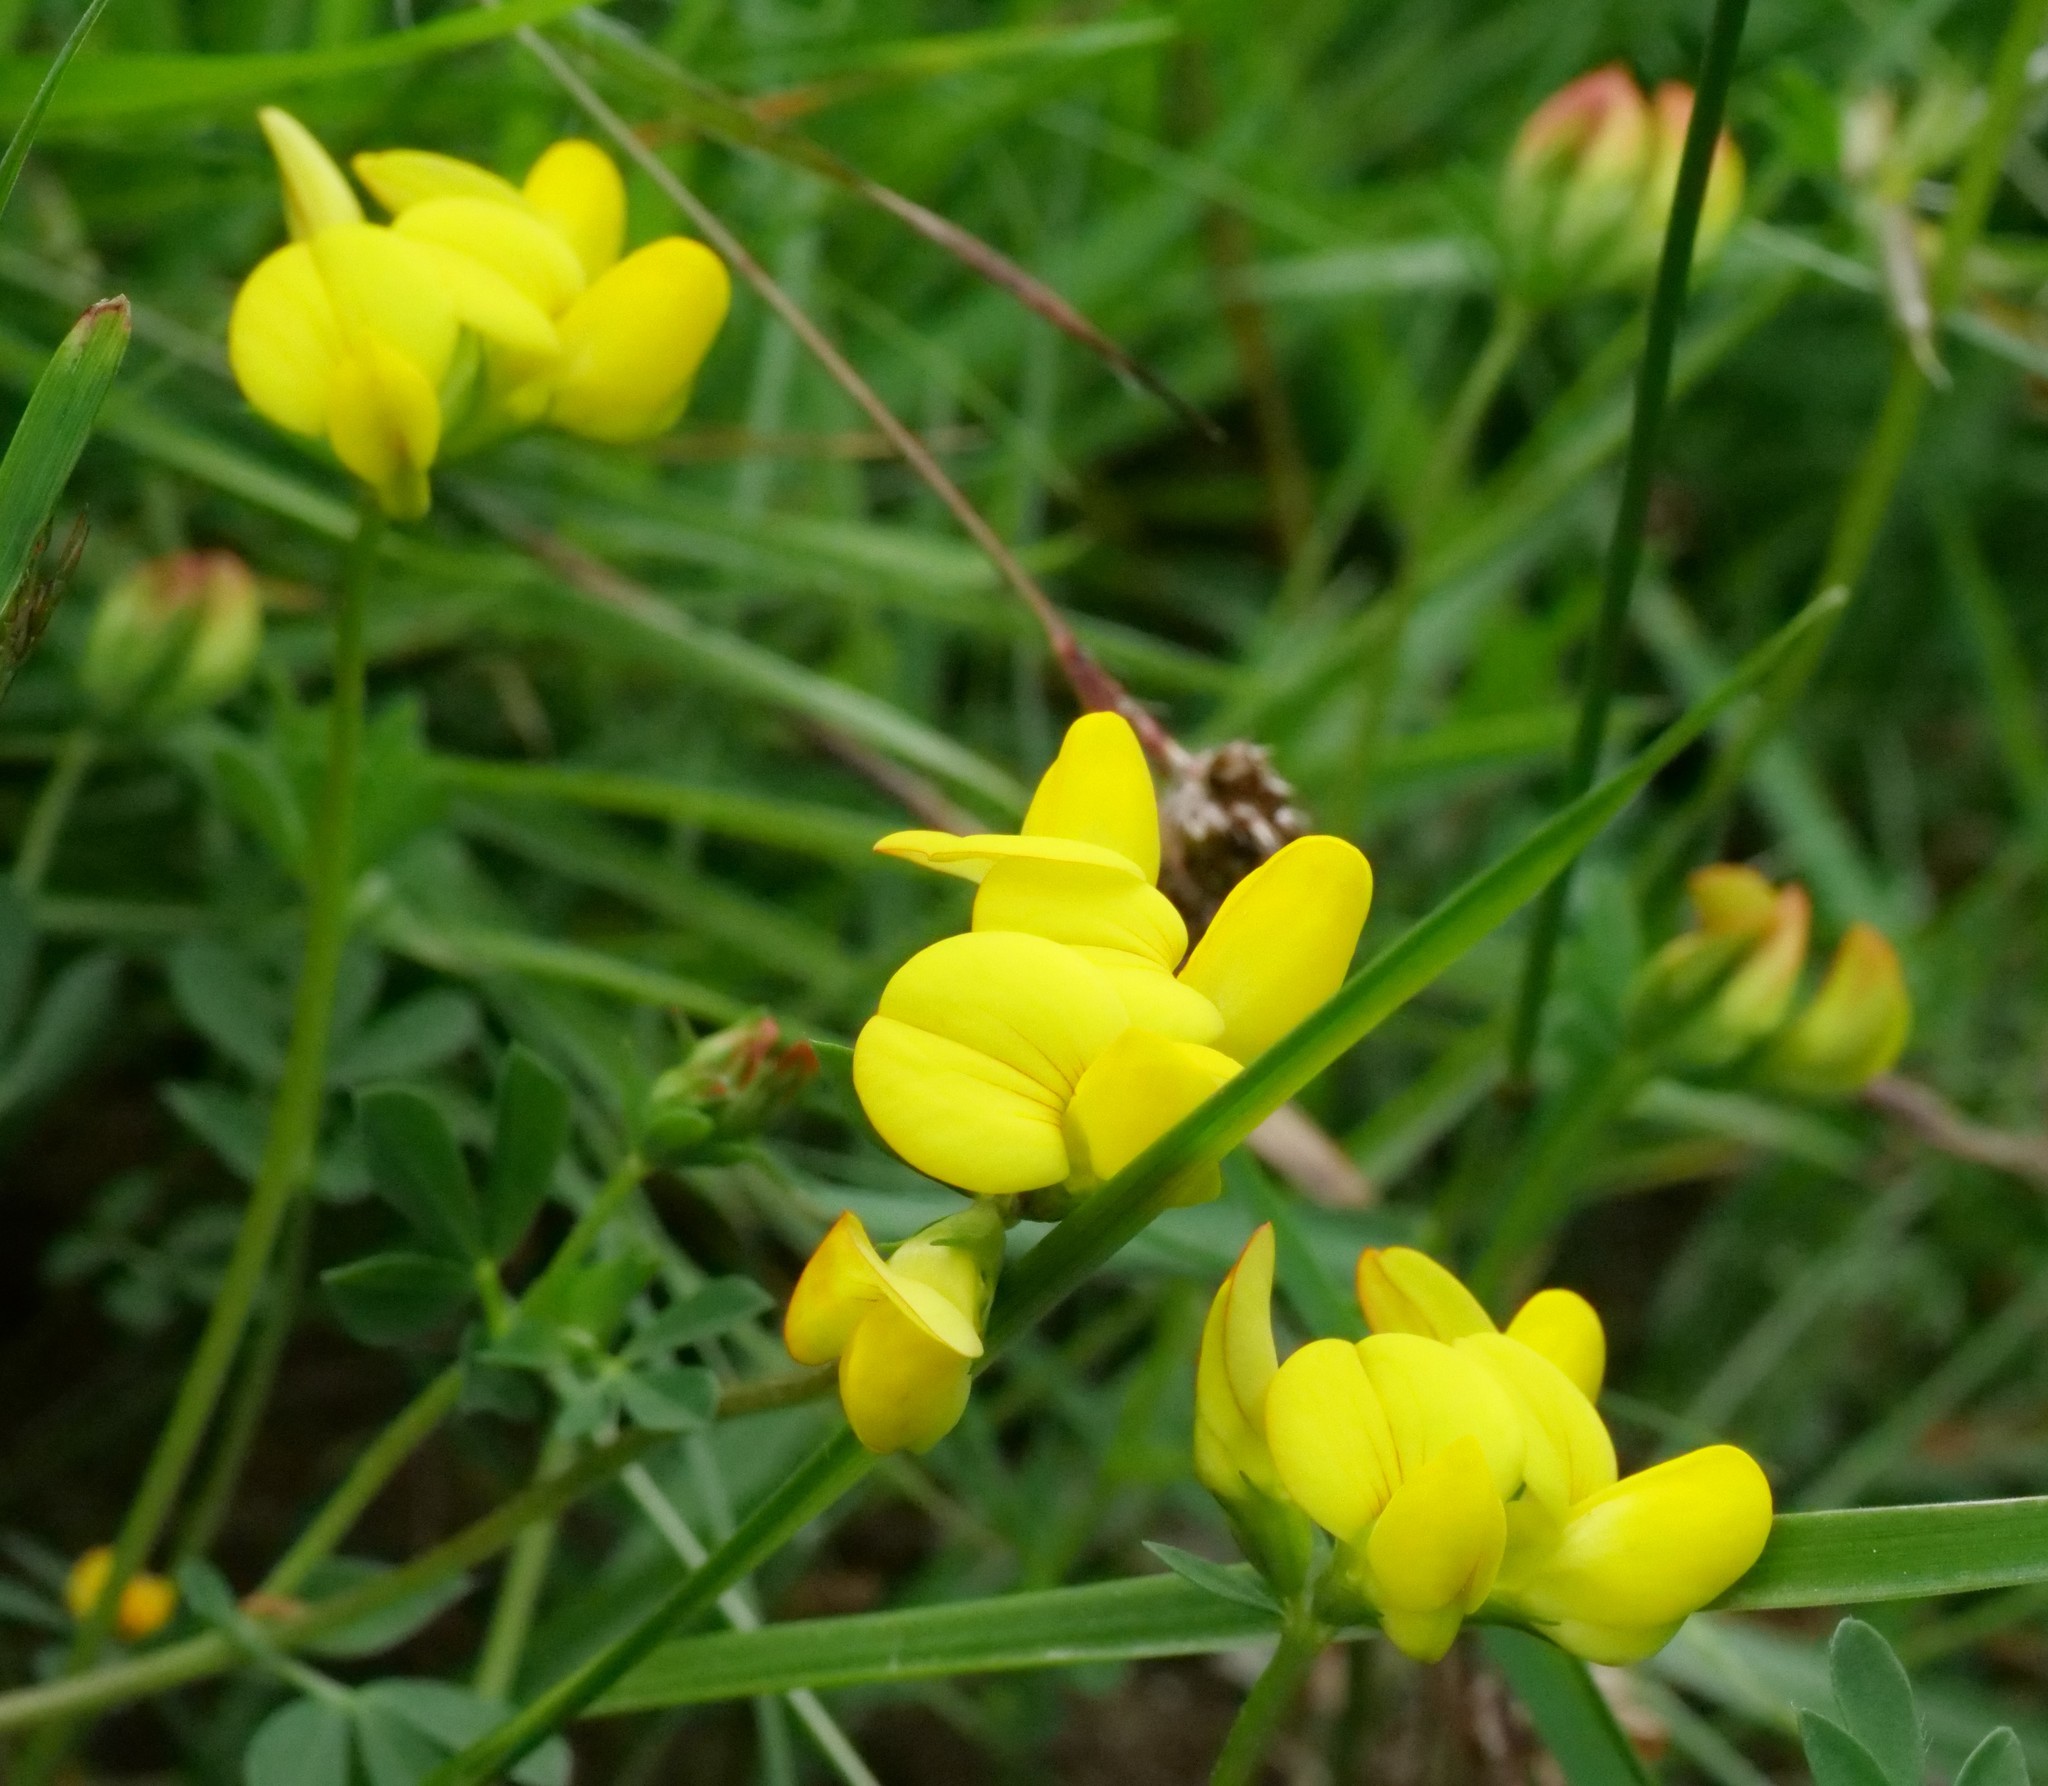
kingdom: Plantae
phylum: Tracheophyta
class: Magnoliopsida
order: Fabales
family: Fabaceae
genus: Lotus
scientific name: Lotus corniculatus
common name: Common bird's-foot-trefoil
